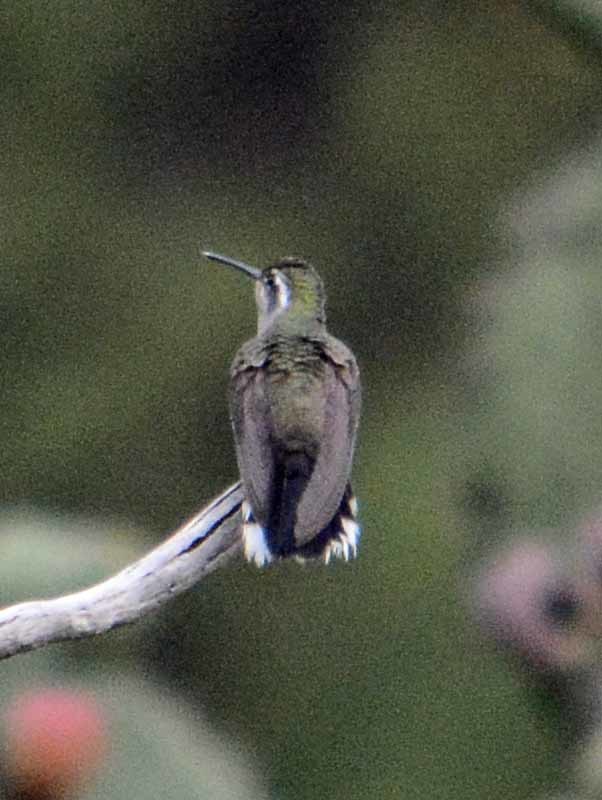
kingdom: Animalia
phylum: Chordata
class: Aves
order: Apodiformes
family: Trochilidae
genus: Lampornis
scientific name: Lampornis clemenciae
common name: Blue-throated mountaingem
